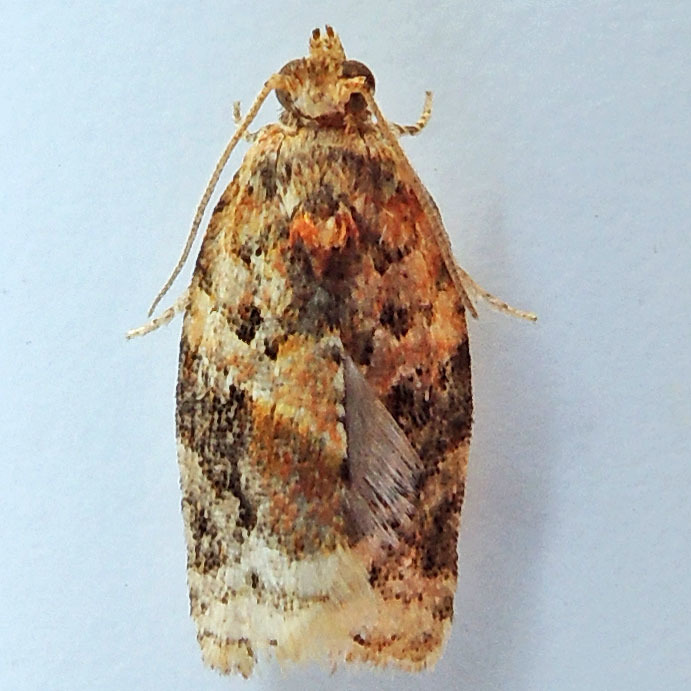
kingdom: Animalia
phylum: Arthropoda
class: Insecta
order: Lepidoptera
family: Tortricidae
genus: Argyrotaenia
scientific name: Argyrotaenia velutinana
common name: Red-banded leafroller moth
